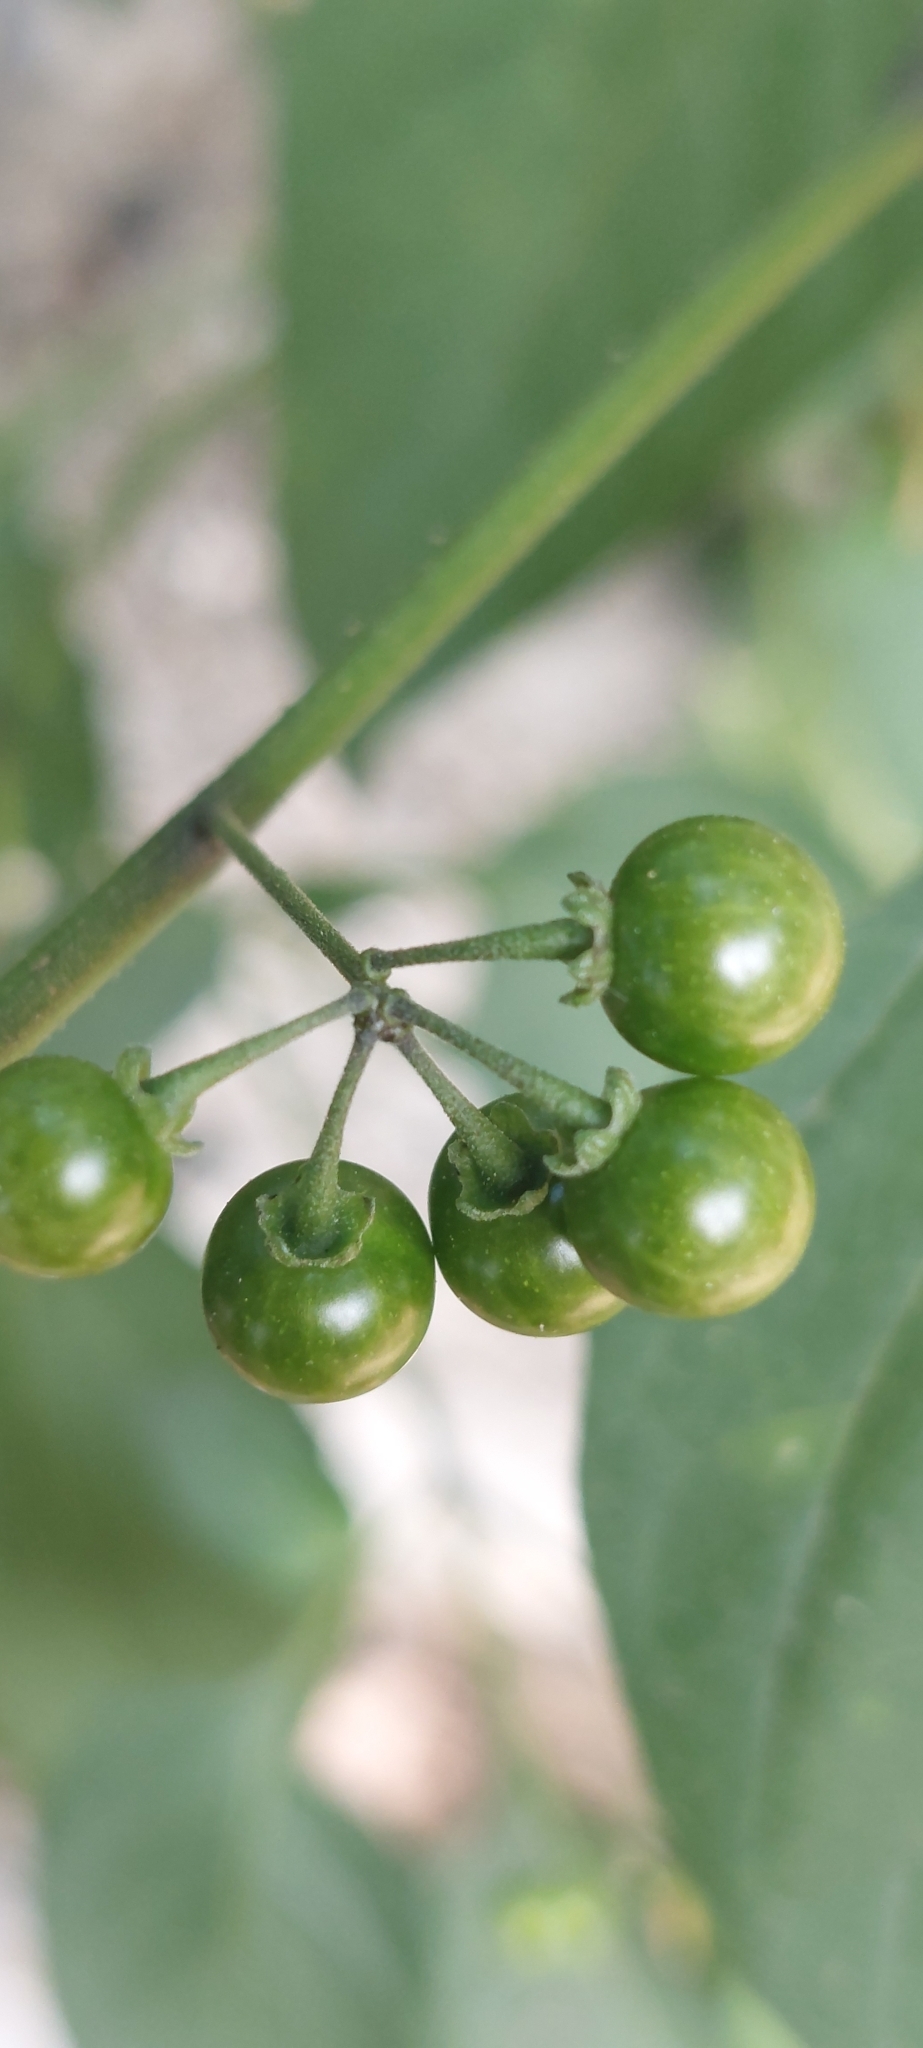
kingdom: Plantae
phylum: Tracheophyta
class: Magnoliopsida
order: Solanales
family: Solanaceae
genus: Solanum
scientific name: Solanum americanum
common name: American black nightshade
